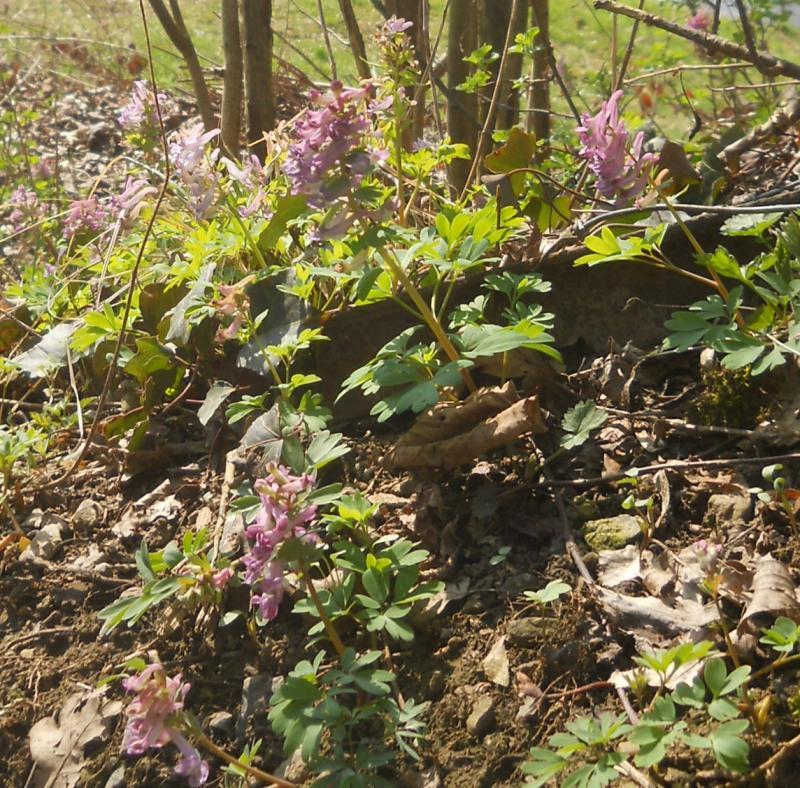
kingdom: Plantae
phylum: Tracheophyta
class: Magnoliopsida
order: Ranunculales
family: Papaveraceae
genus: Corydalis
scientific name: Corydalis solida
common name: Bird-in-a-bush
